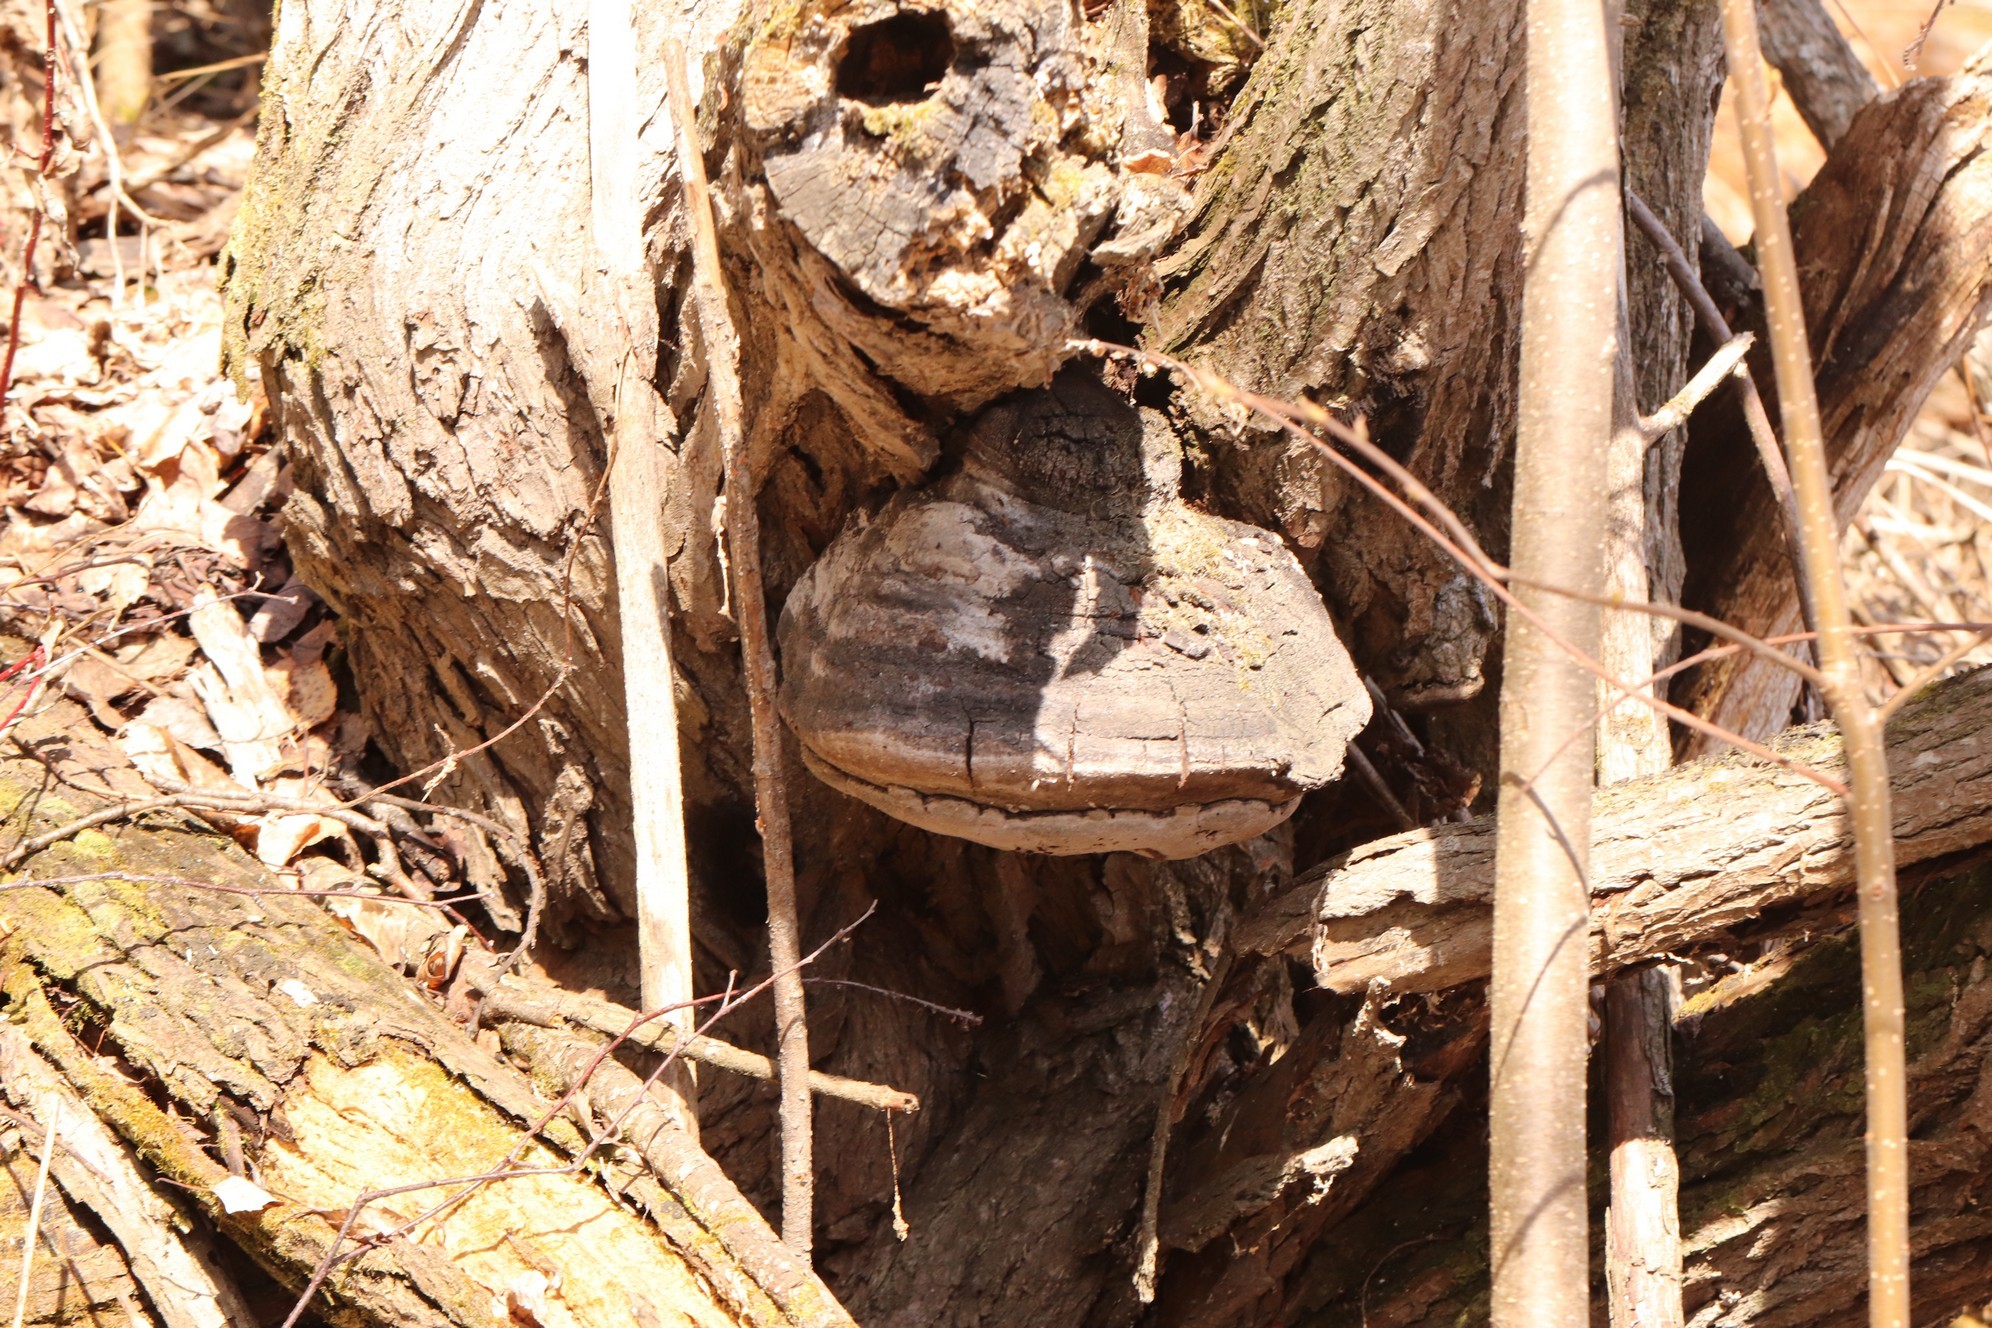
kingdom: Fungi
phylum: Basidiomycota
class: Agaricomycetes
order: Hymenochaetales
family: Hymenochaetaceae
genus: Phellinus
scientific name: Phellinus igniarius
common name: Willow bracket
